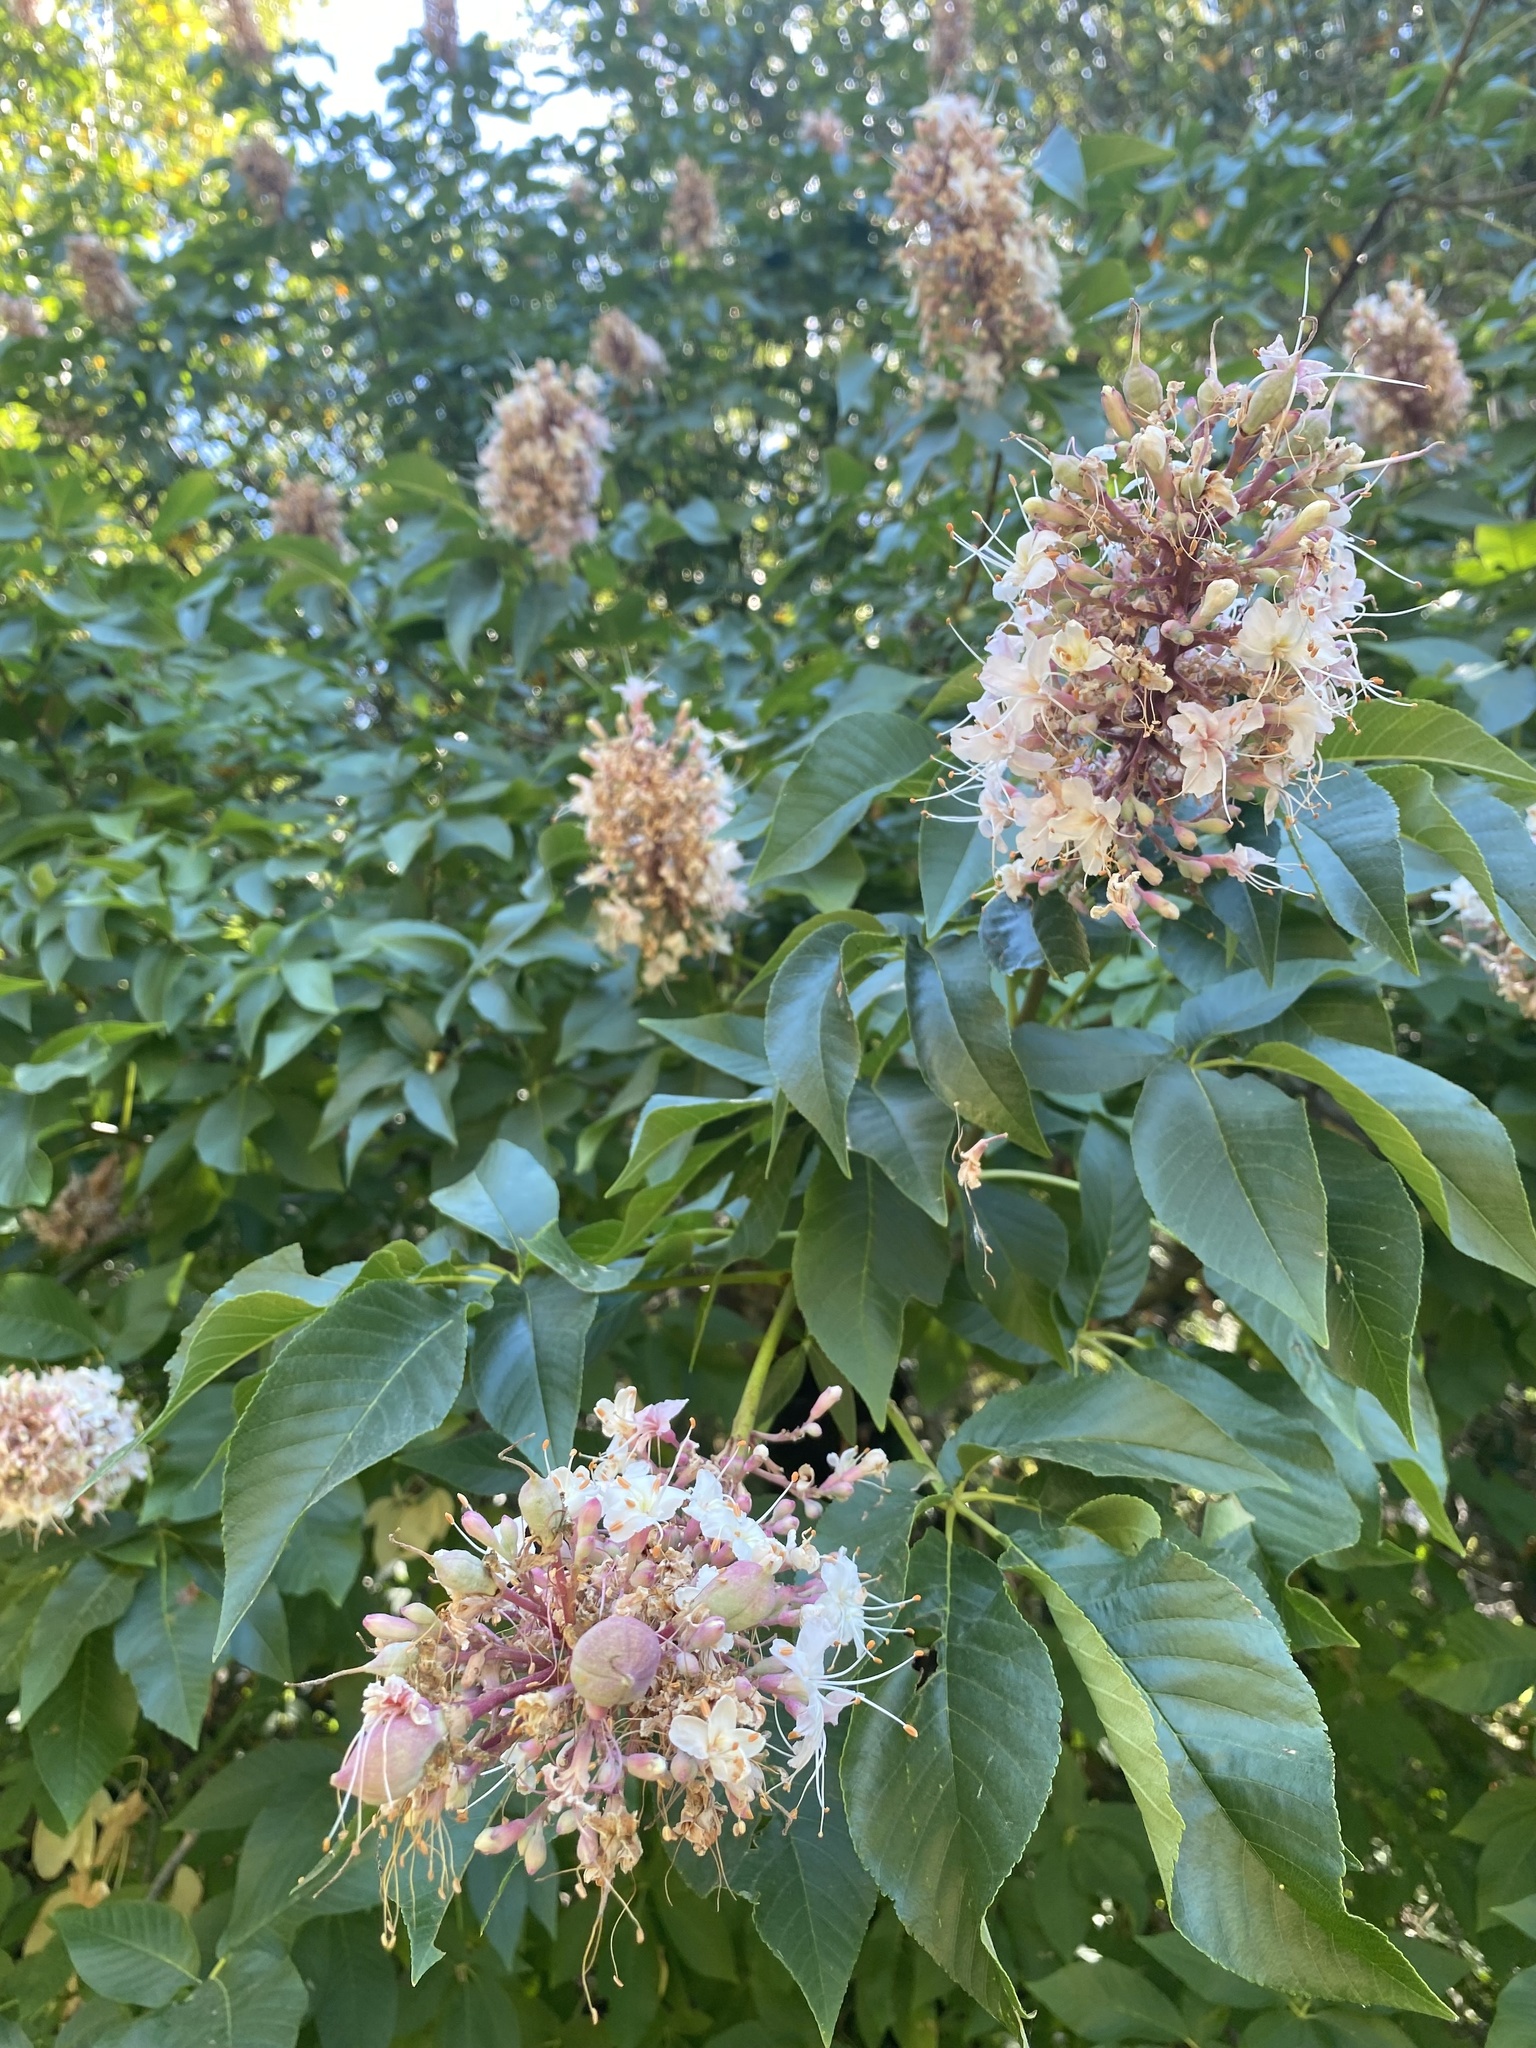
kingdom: Plantae
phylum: Tracheophyta
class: Magnoliopsida
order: Sapindales
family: Sapindaceae
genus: Aesculus
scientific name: Aesculus californica
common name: California buckeye
